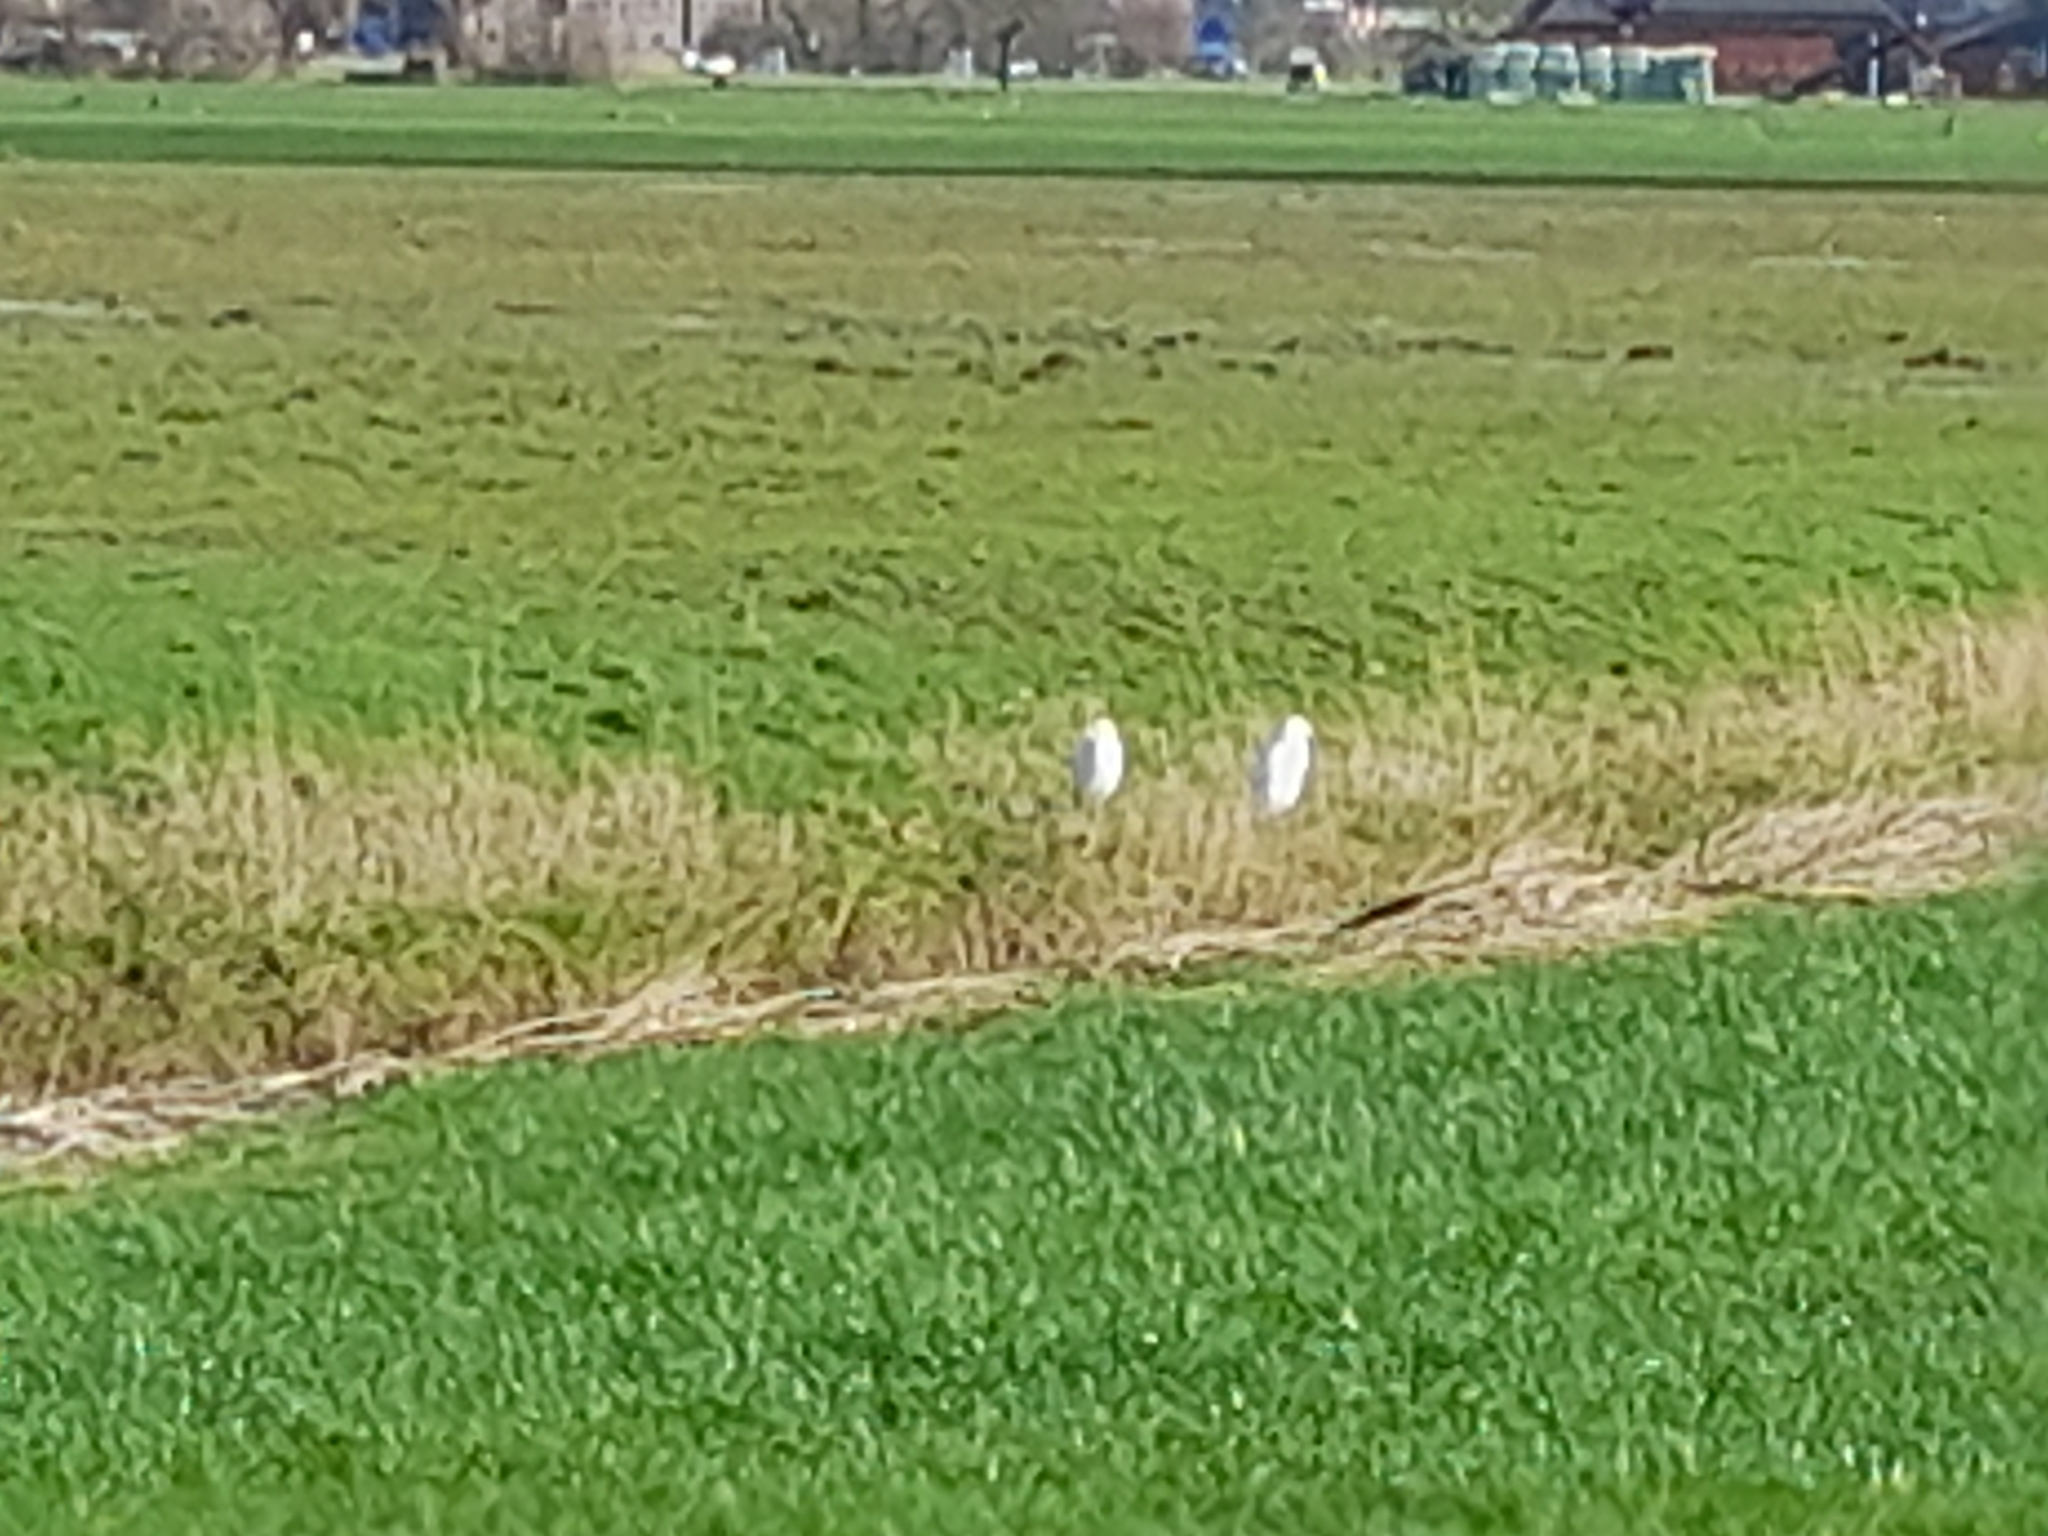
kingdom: Animalia
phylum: Chordata
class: Aves
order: Pelecaniformes
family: Ardeidae
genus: Bubulcus
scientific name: Bubulcus ibis
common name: Cattle egret
